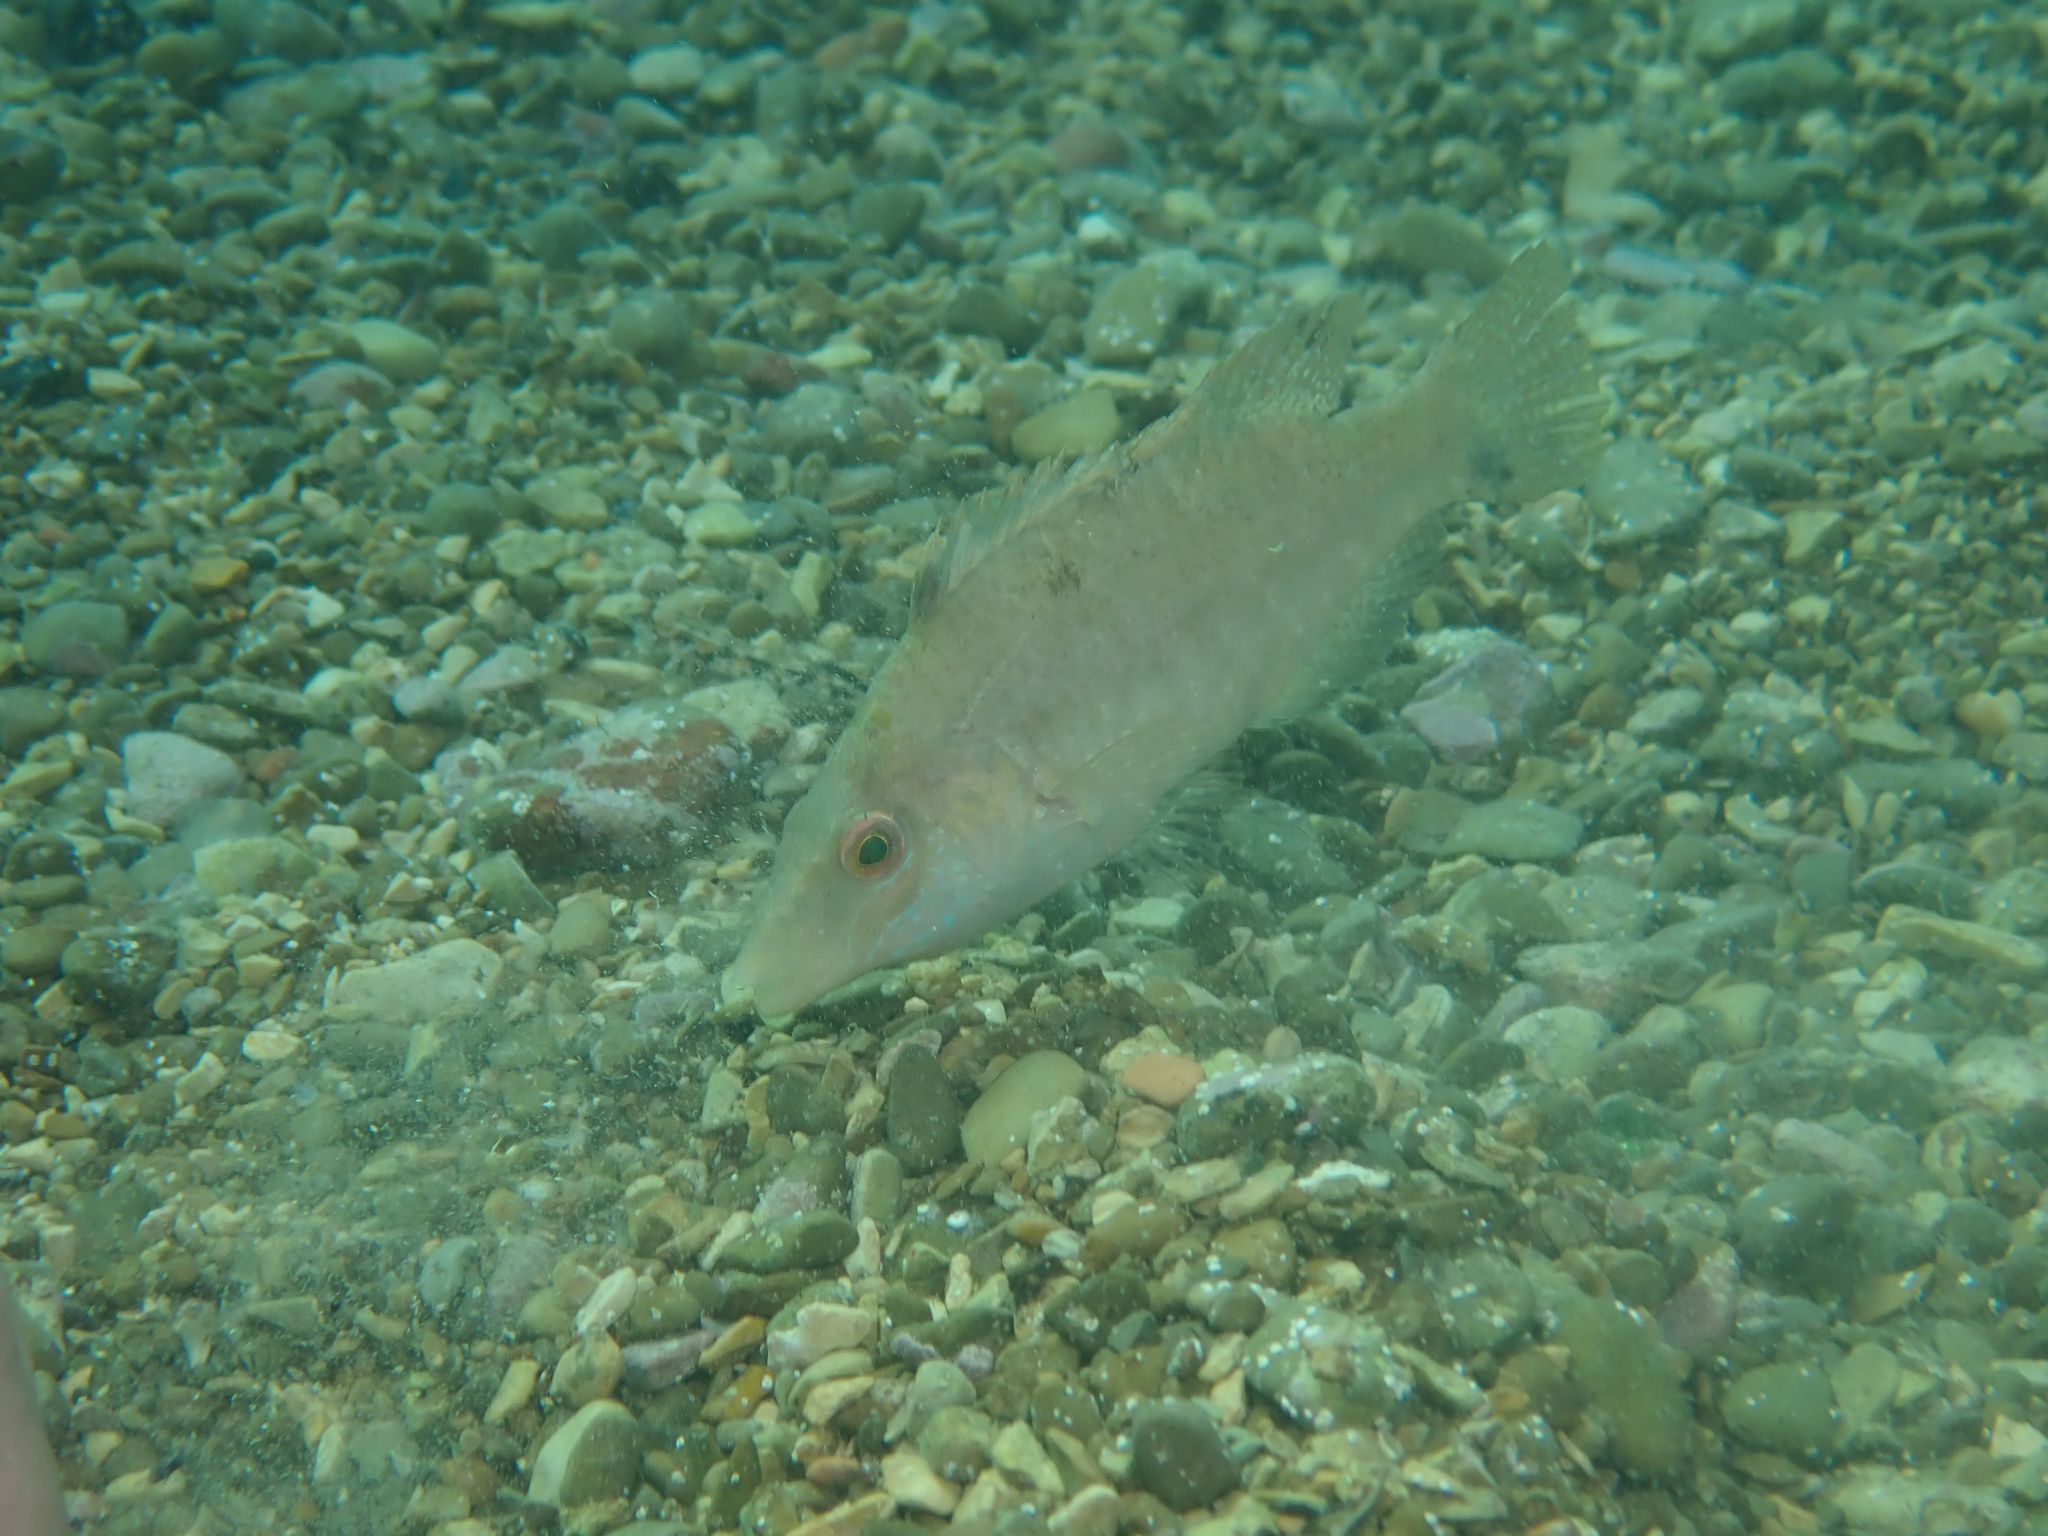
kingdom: Animalia
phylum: Chordata
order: Perciformes
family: Labridae
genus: Symphodus
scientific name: Symphodus cinereus
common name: Grey wrasse
